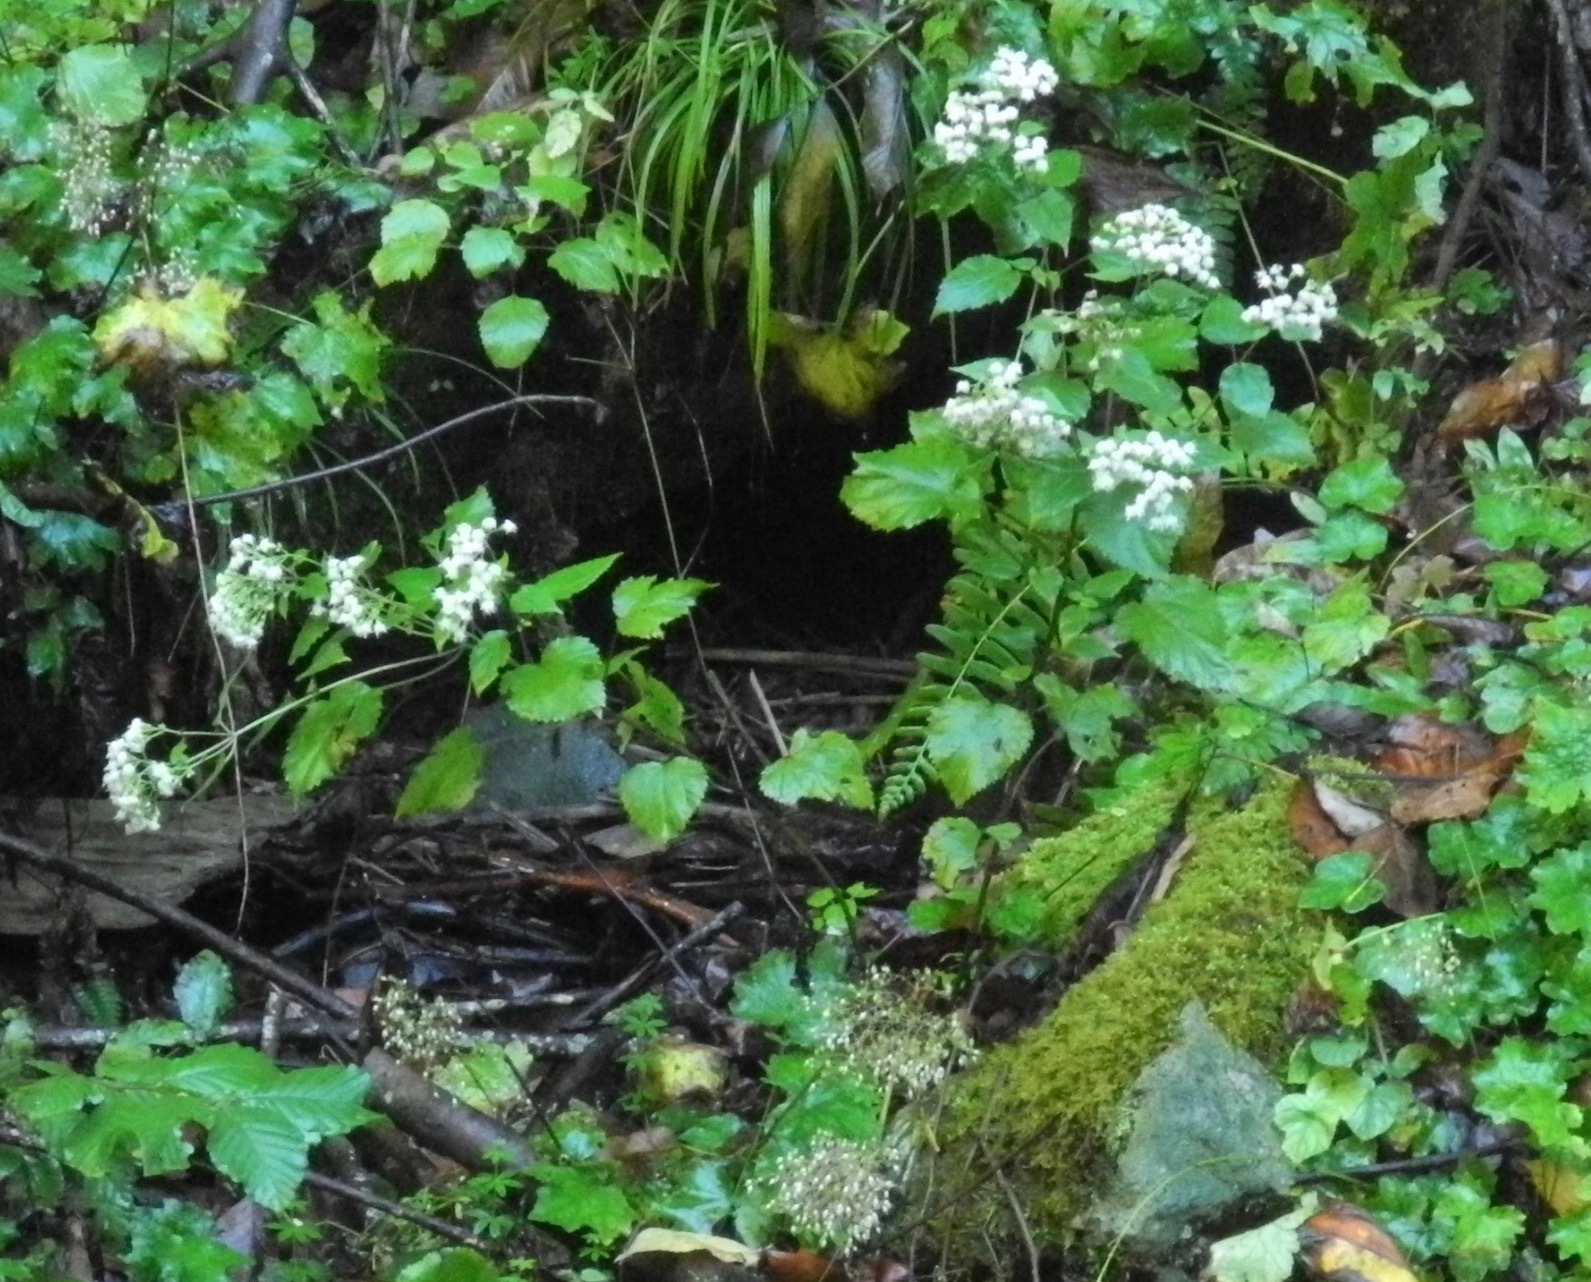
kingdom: Plantae
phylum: Tracheophyta
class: Magnoliopsida
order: Asterales
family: Asteraceae
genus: Ageratina
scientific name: Ageratina altissima
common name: White snakeroot
